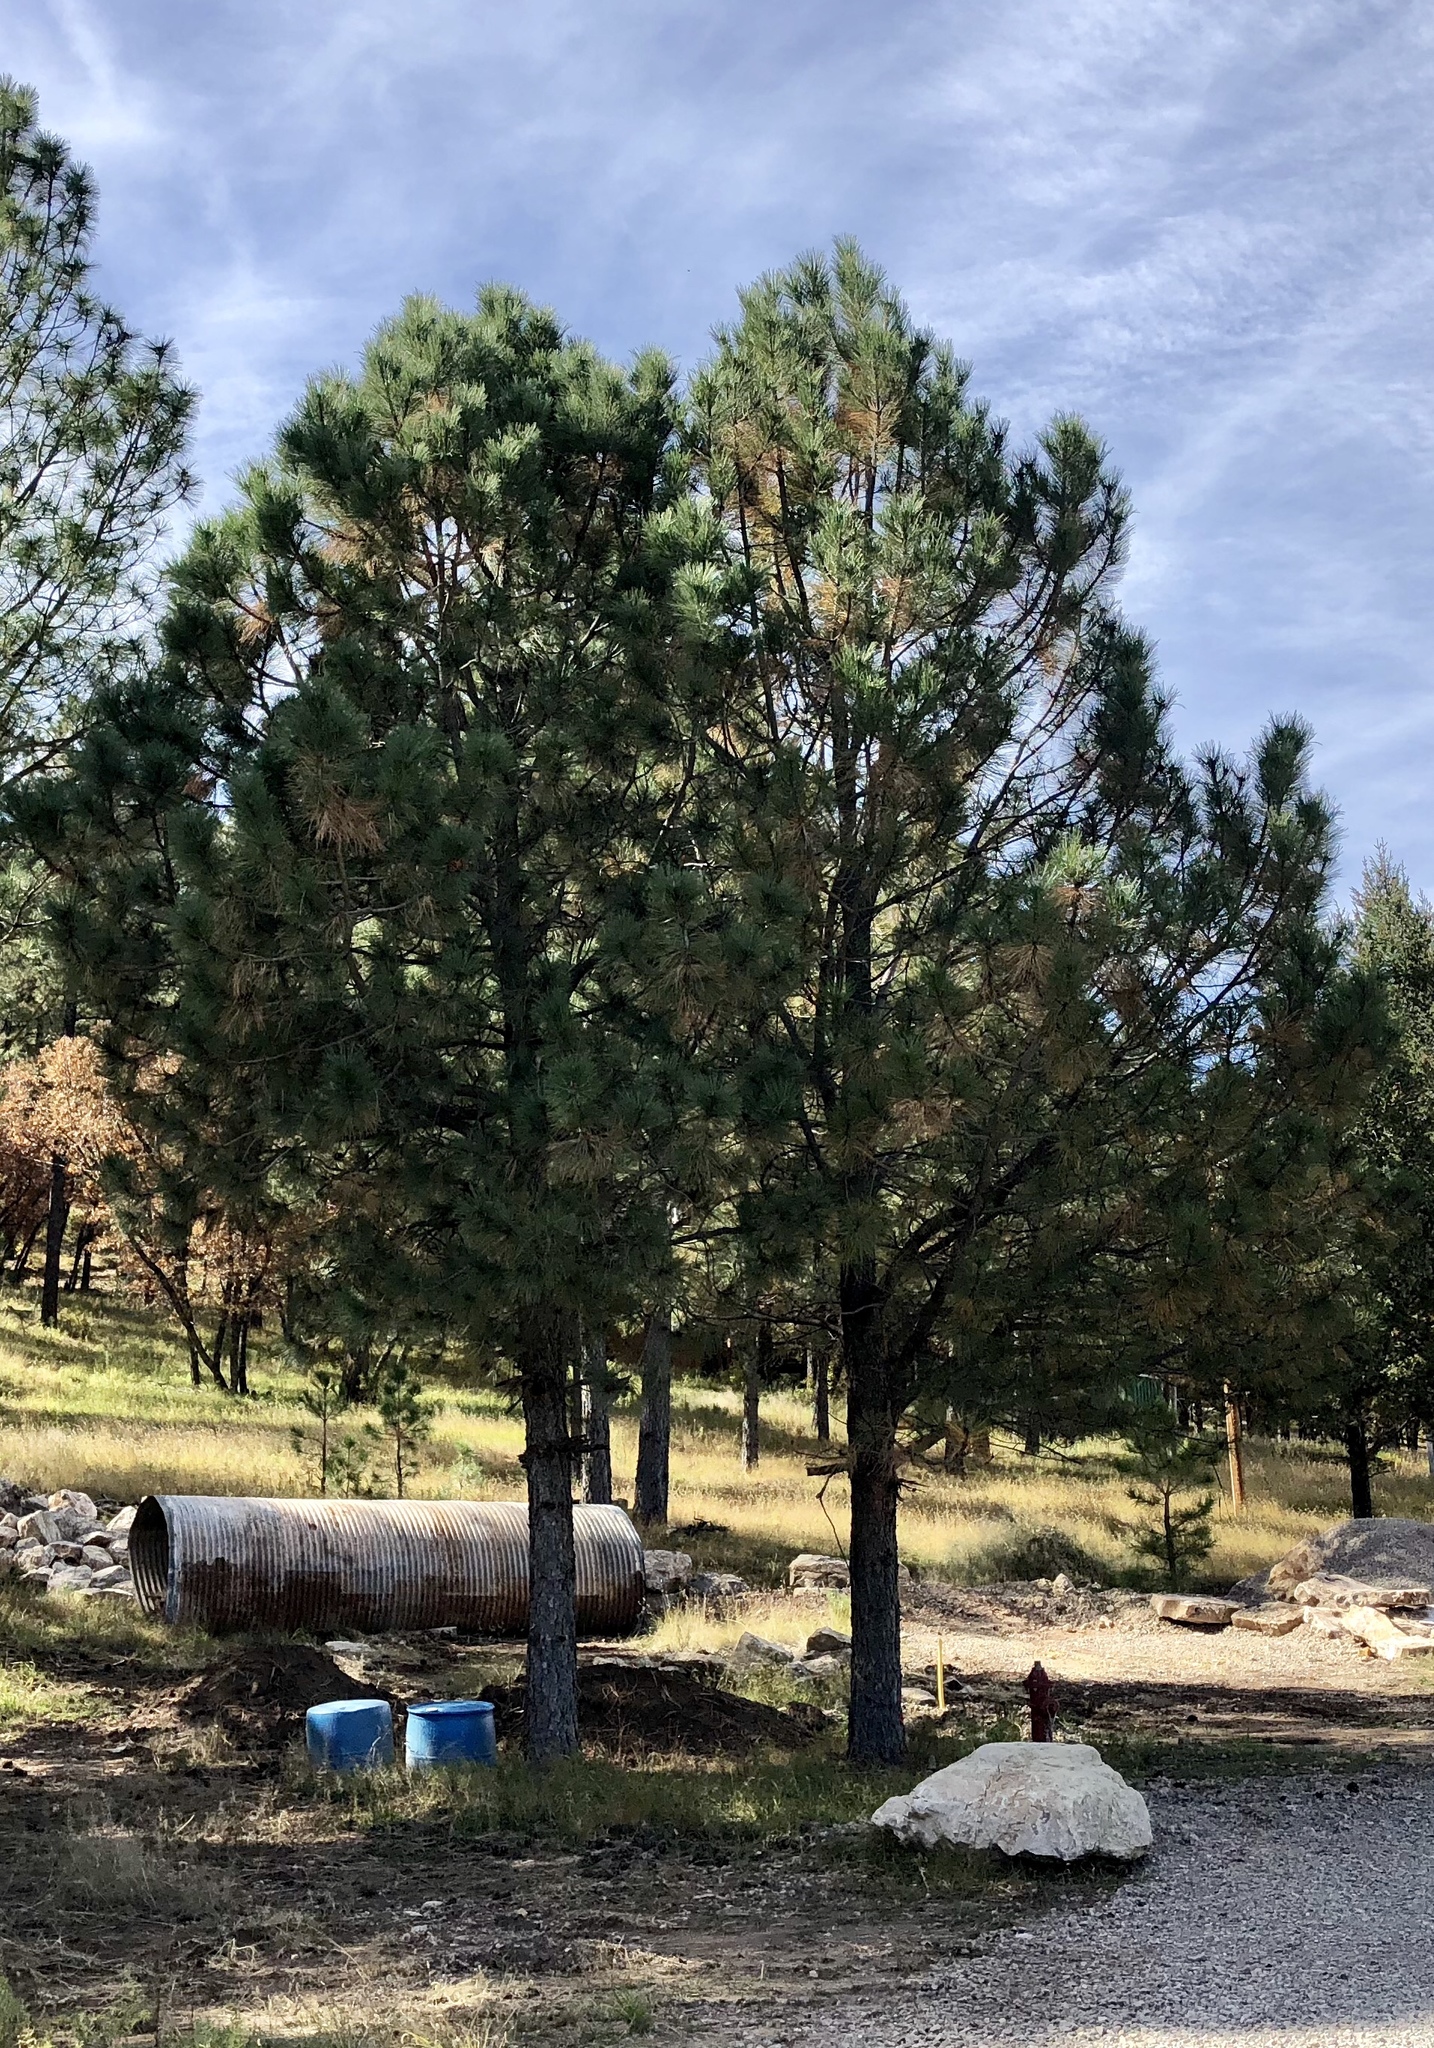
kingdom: Plantae
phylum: Tracheophyta
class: Pinopsida
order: Pinales
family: Pinaceae
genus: Pinus
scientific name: Pinus ponderosa
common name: Western yellow-pine
